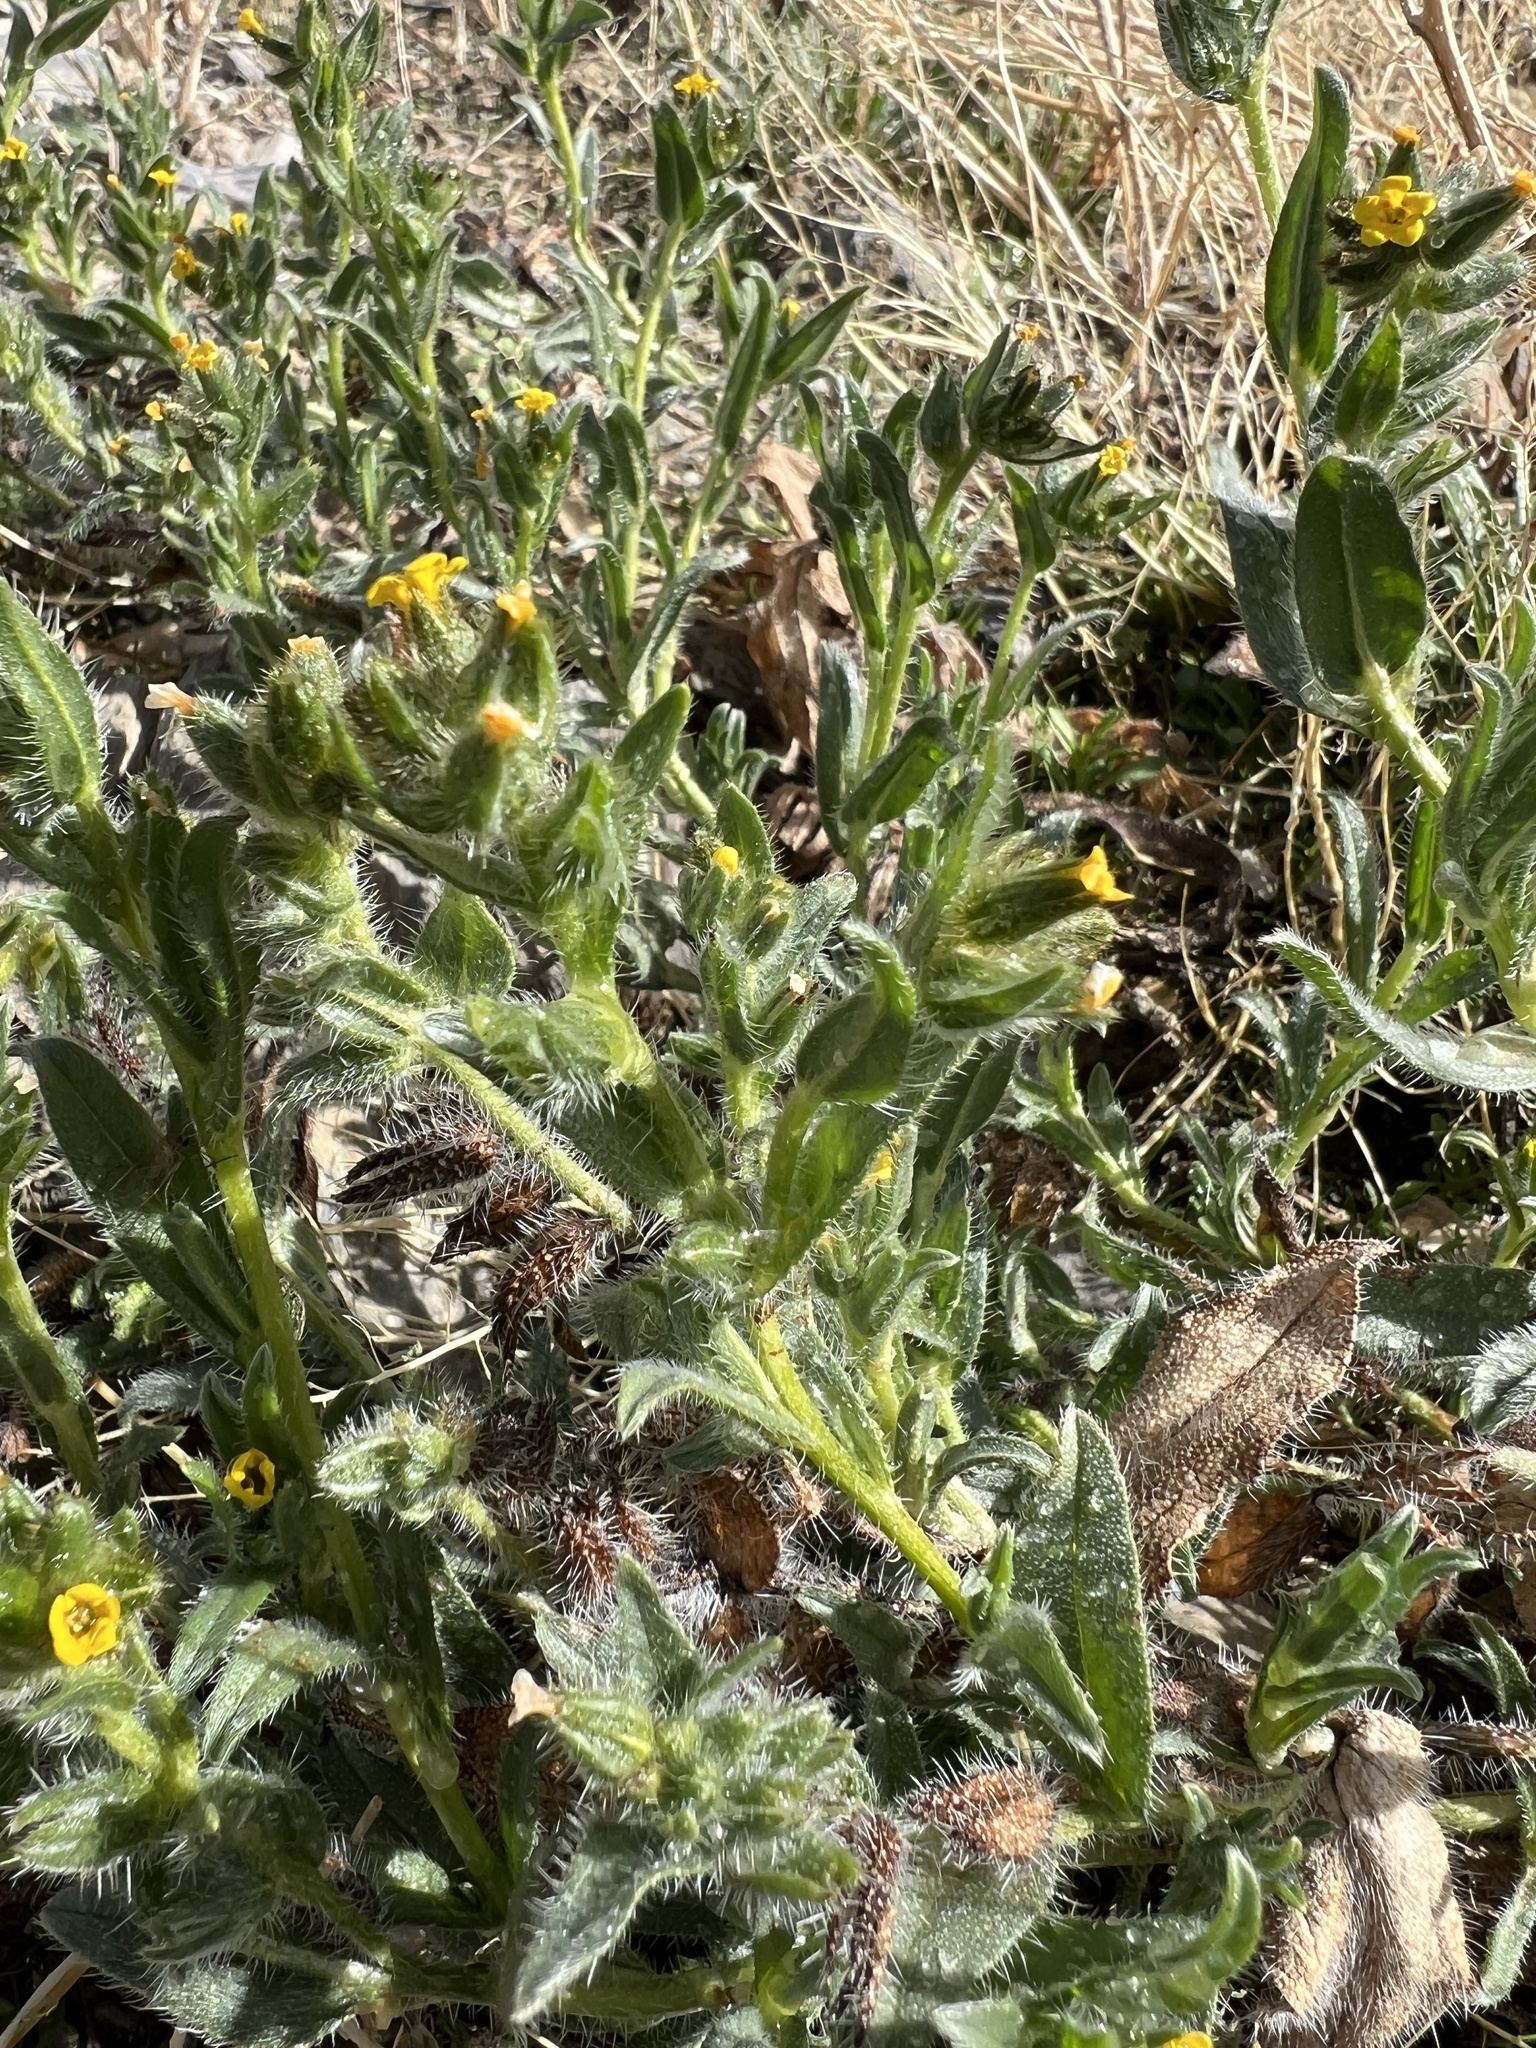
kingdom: Plantae
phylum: Tracheophyta
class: Magnoliopsida
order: Boraginales
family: Boraginaceae
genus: Amsinckia
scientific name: Amsinckia tessellata
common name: Tessellate fiddleneck
